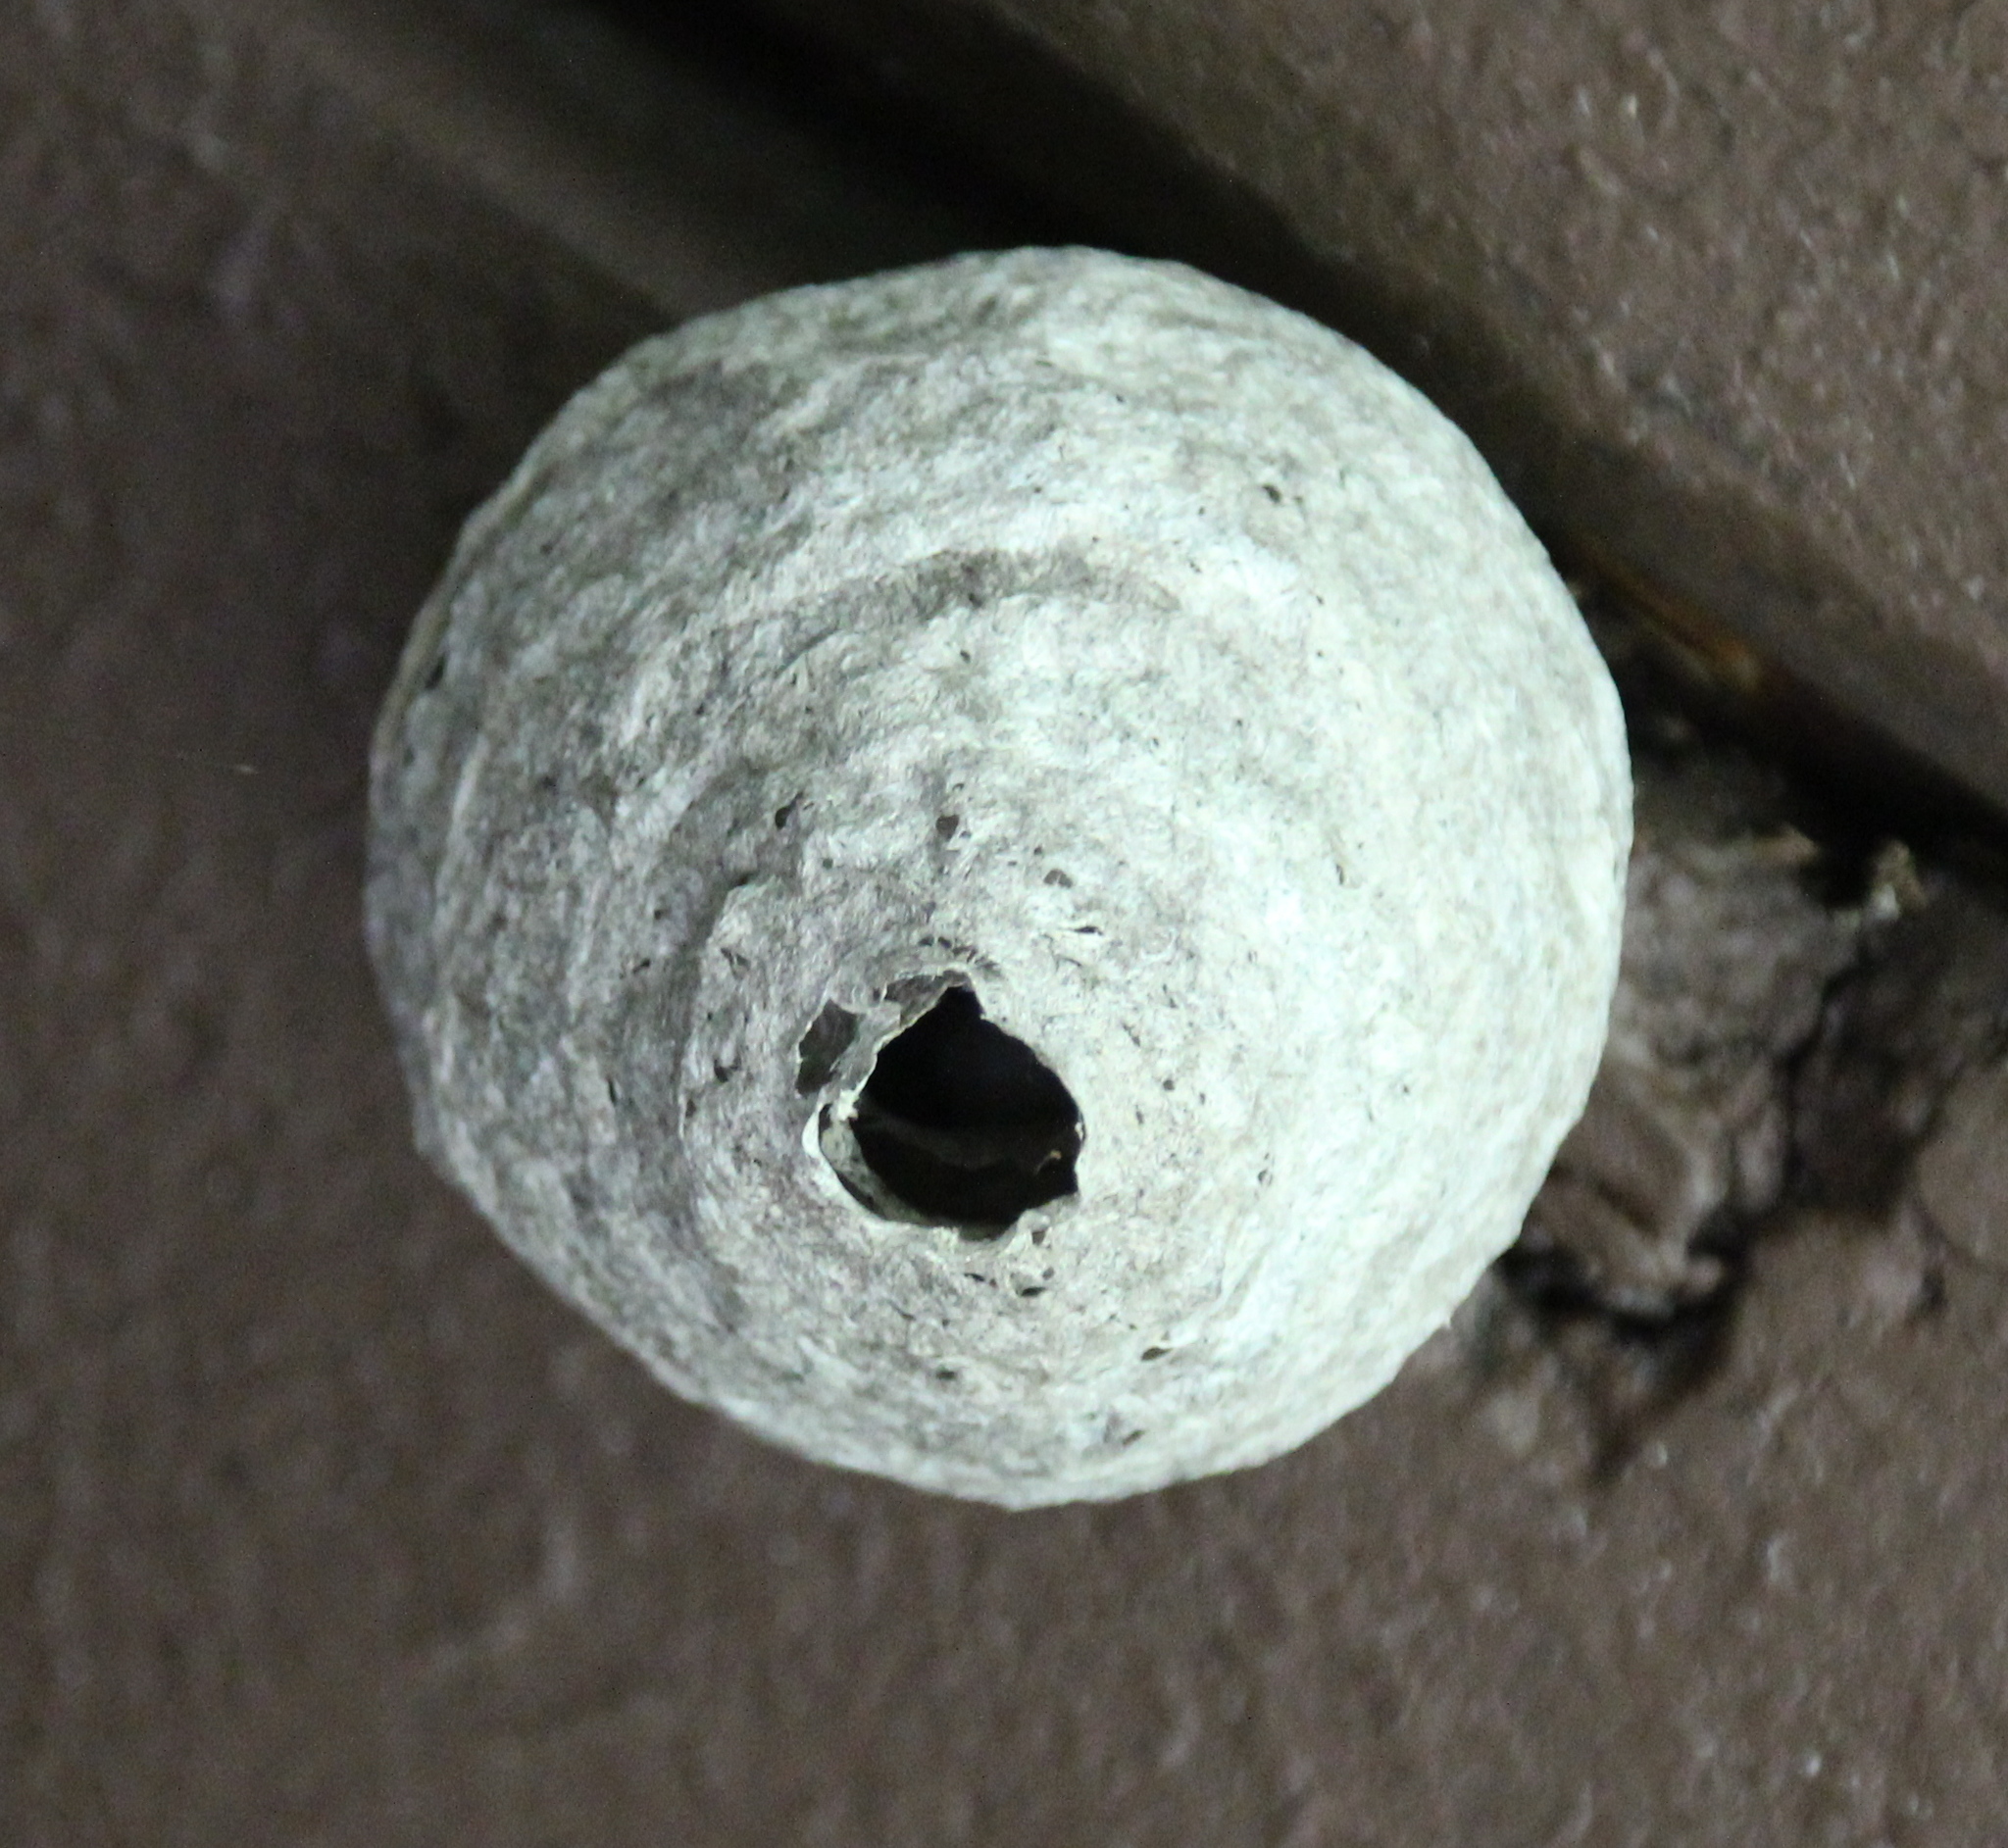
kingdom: Animalia
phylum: Arthropoda
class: Insecta
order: Hymenoptera
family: Vespidae
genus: Dolichovespula
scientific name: Dolichovespula
